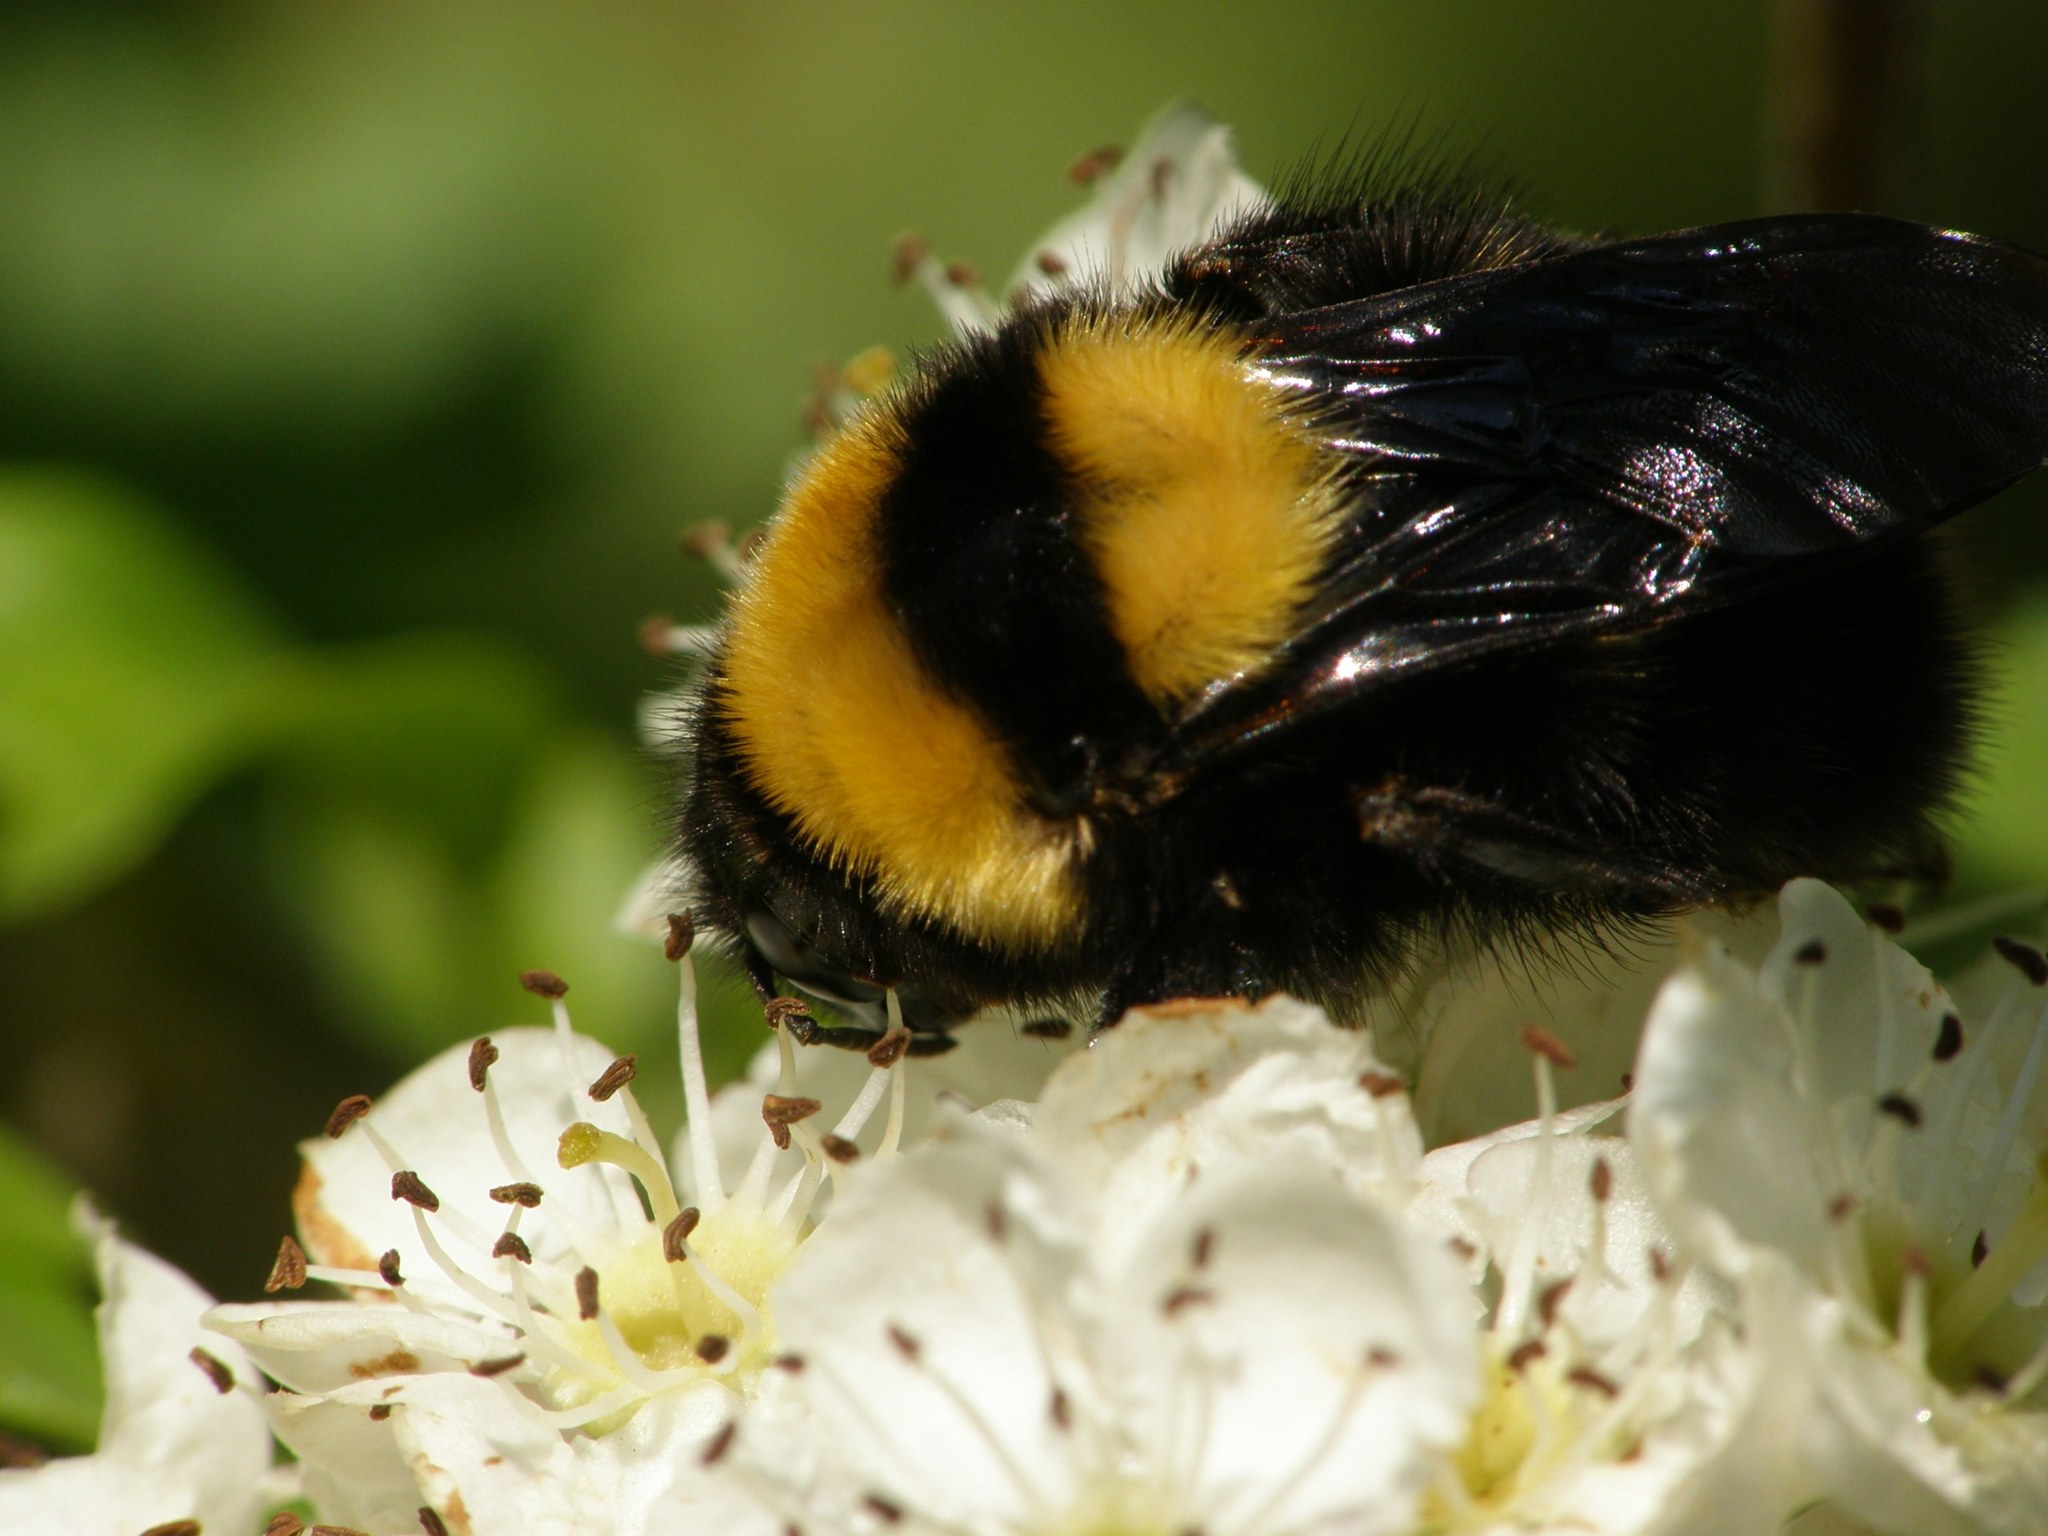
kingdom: Animalia
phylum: Arthropoda
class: Insecta
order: Hymenoptera
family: Apidae
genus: Bombus
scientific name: Bombus argillaceus
